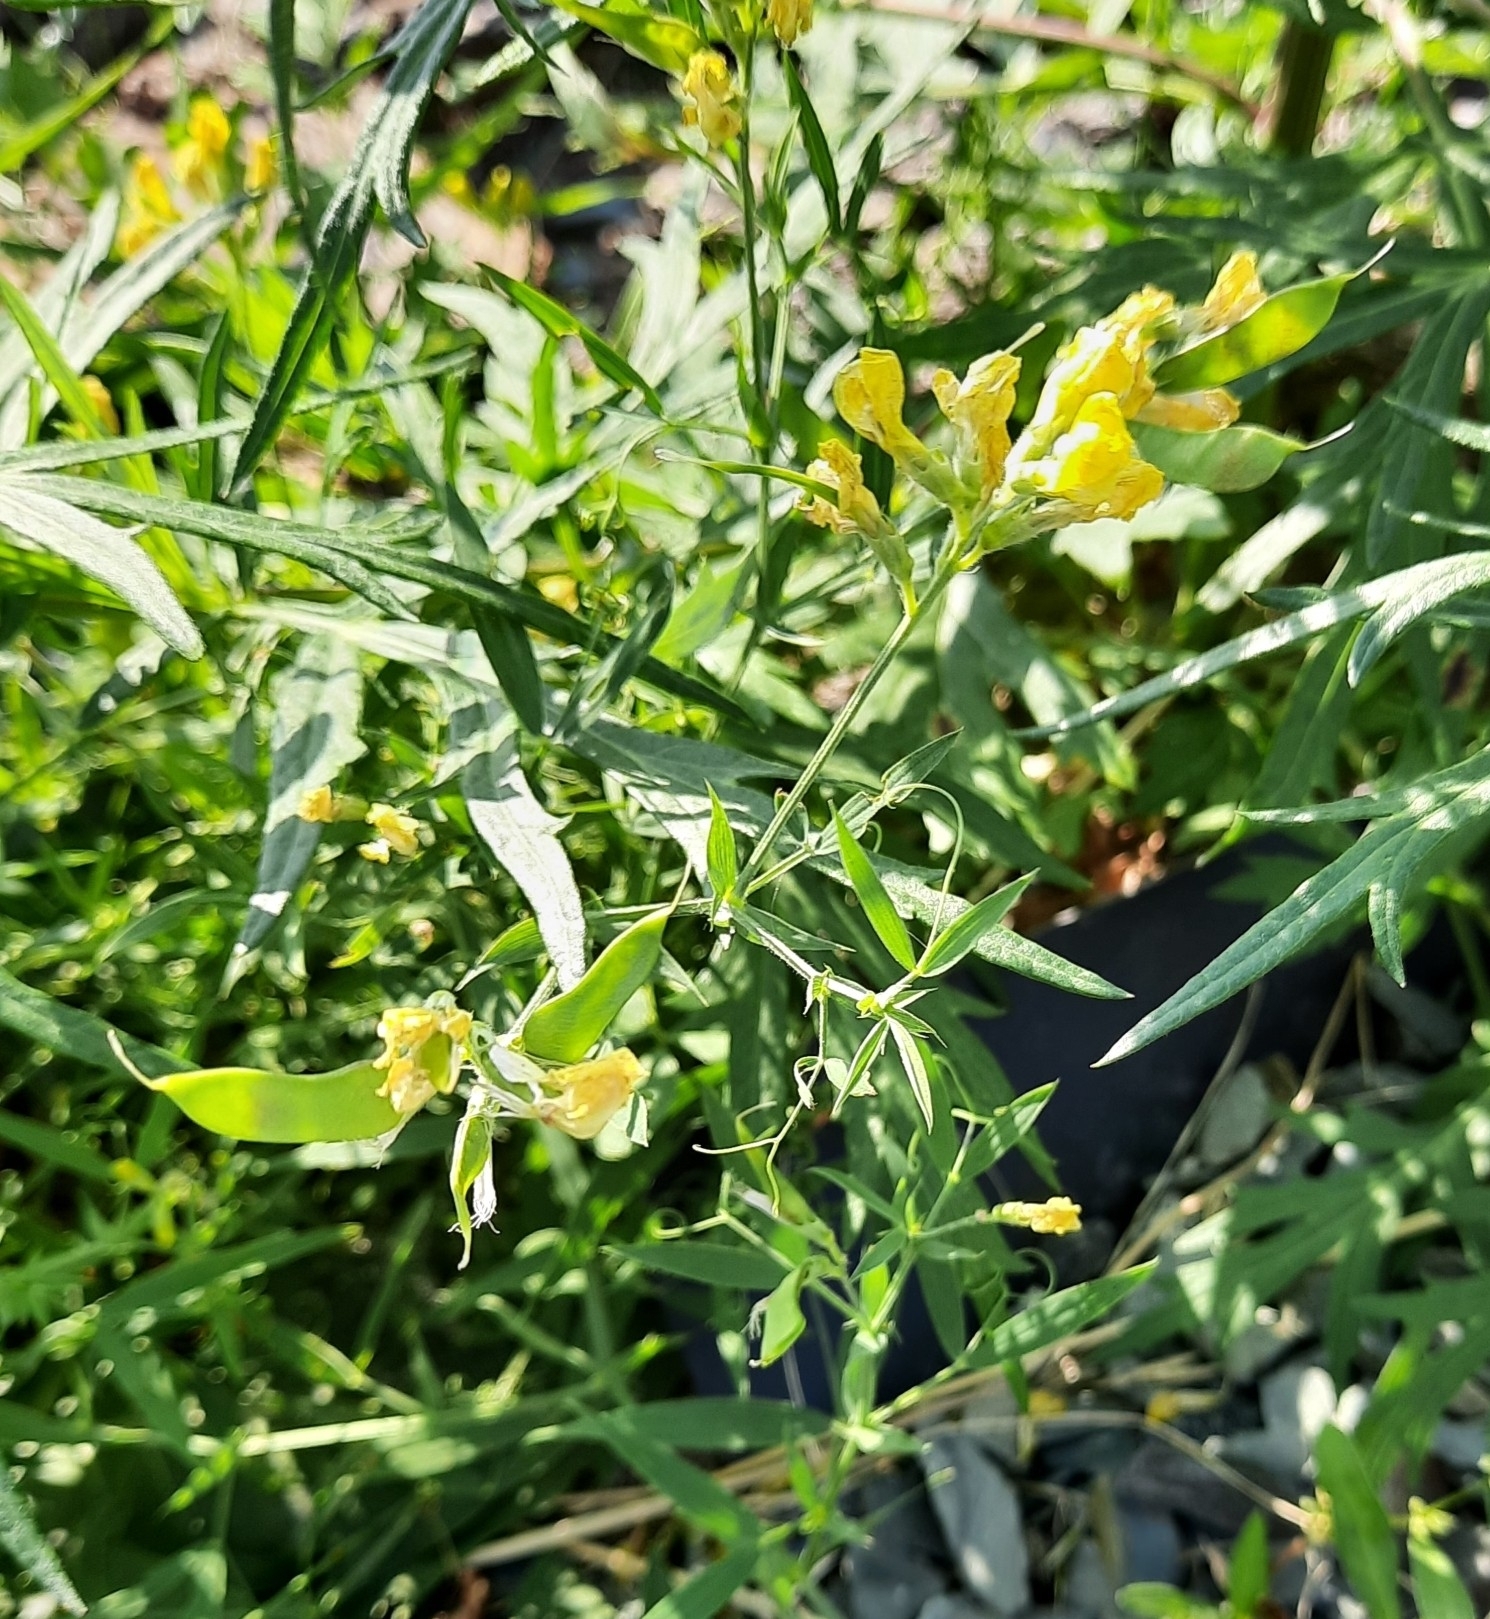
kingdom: Plantae
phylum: Tracheophyta
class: Magnoliopsida
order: Fabales
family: Fabaceae
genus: Lathyrus
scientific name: Lathyrus pratensis
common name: Meadow vetchling
